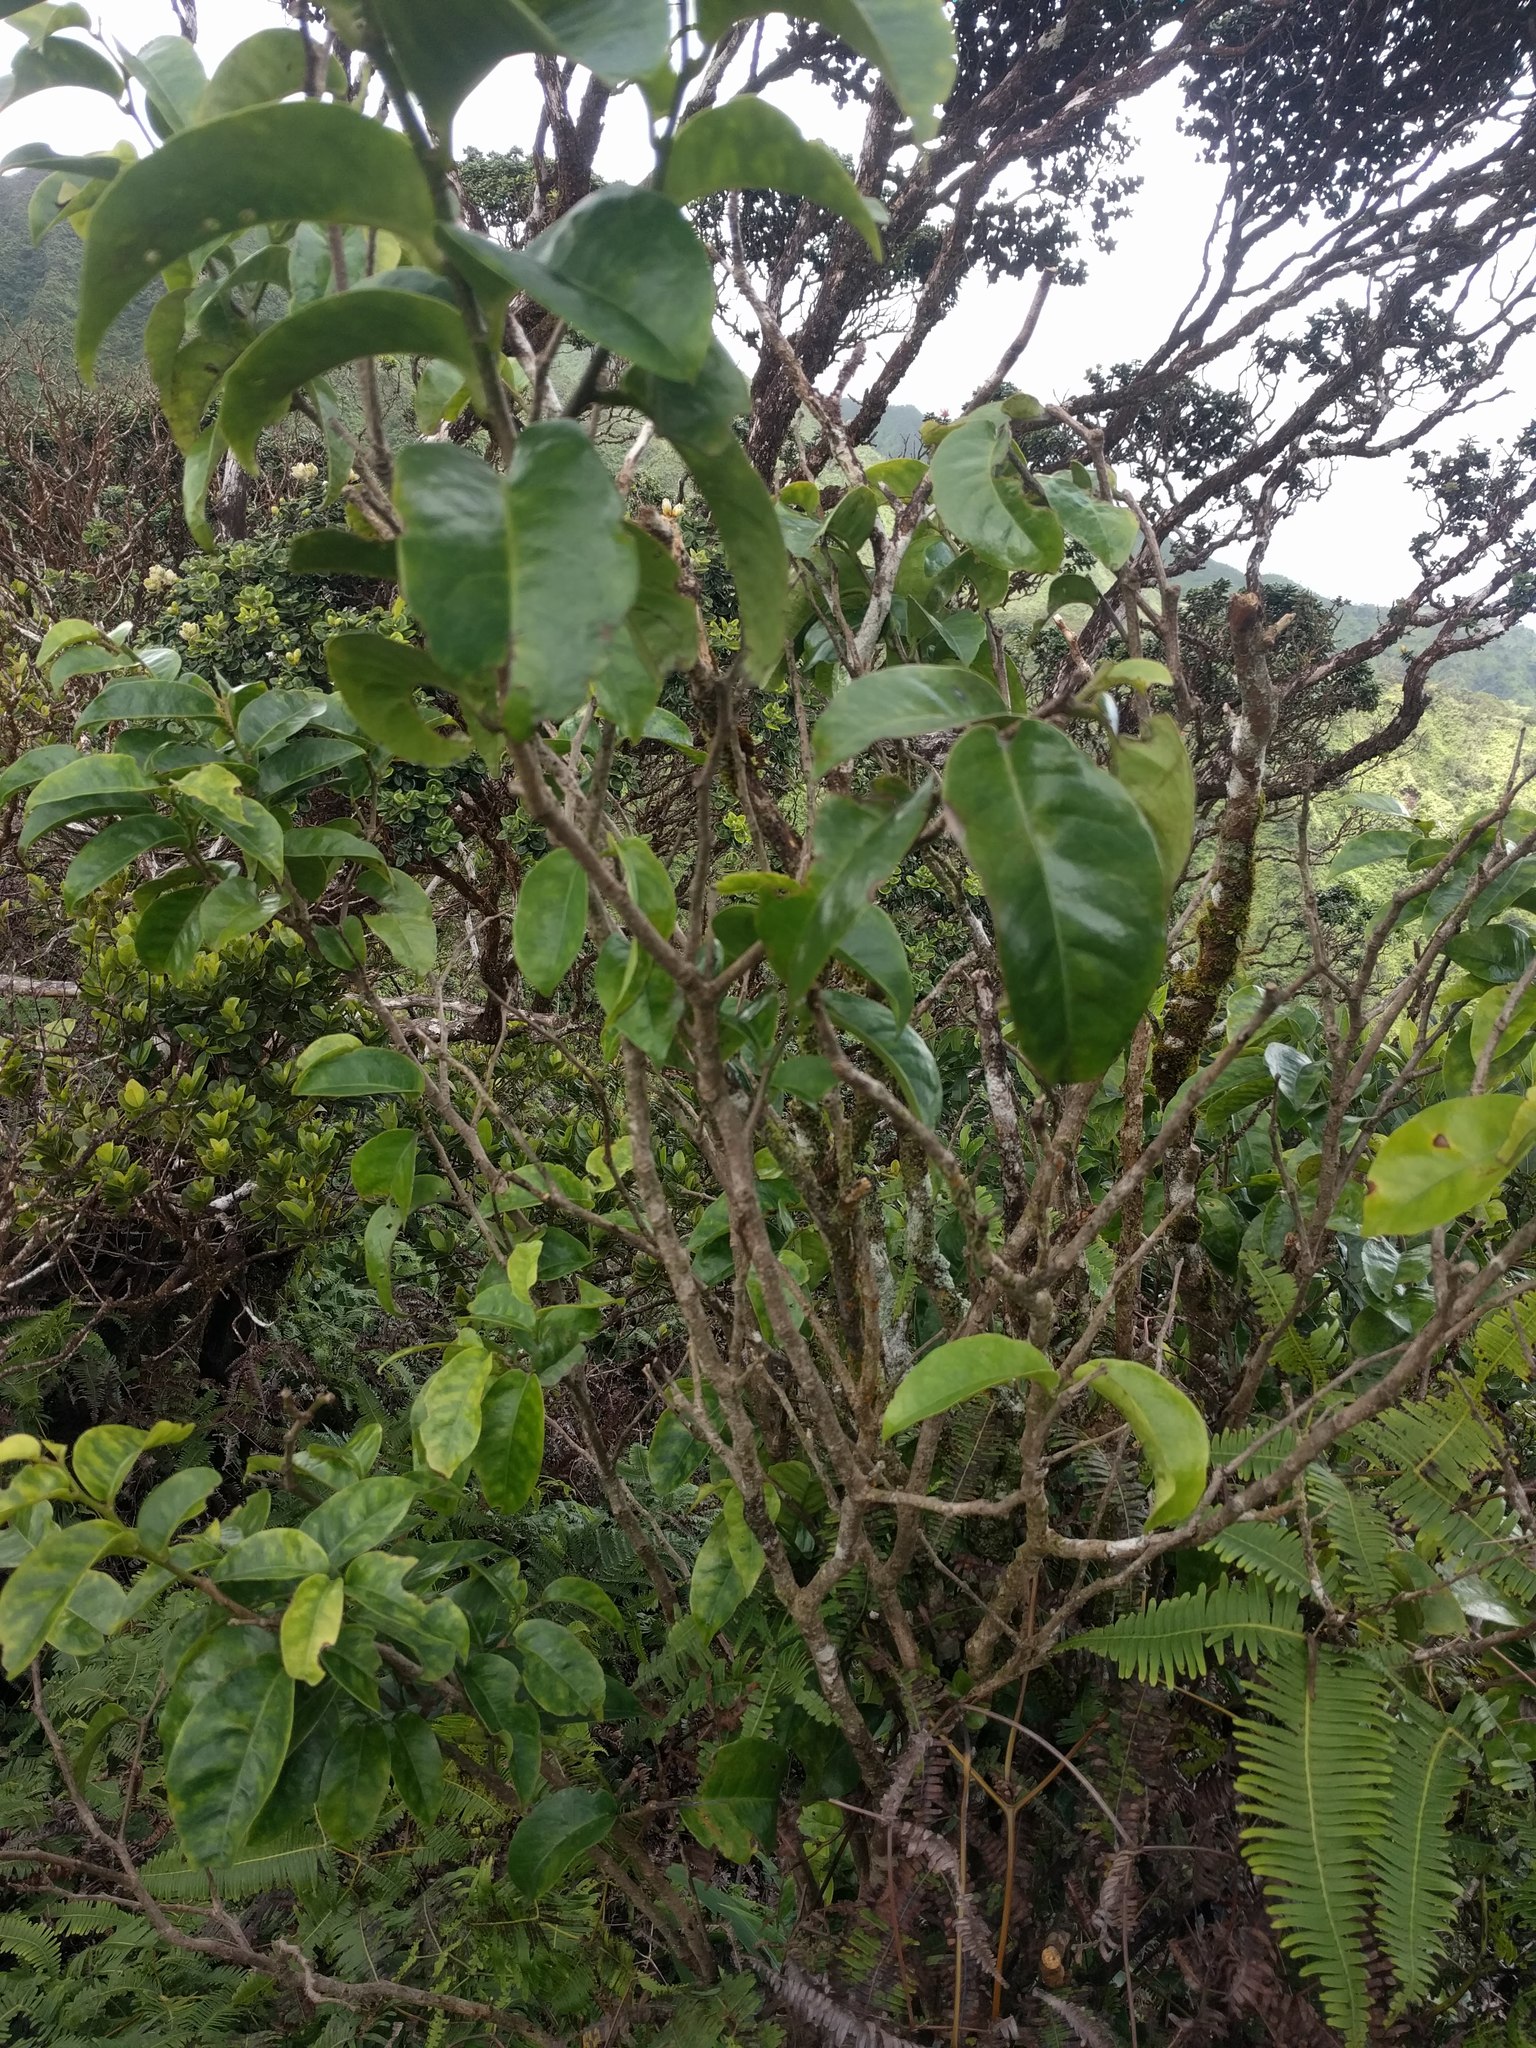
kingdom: Plantae
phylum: Tracheophyta
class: Magnoliopsida
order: Malpighiales
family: Phyllanthaceae
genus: Antidesma
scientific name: Antidesma platyphyllum
